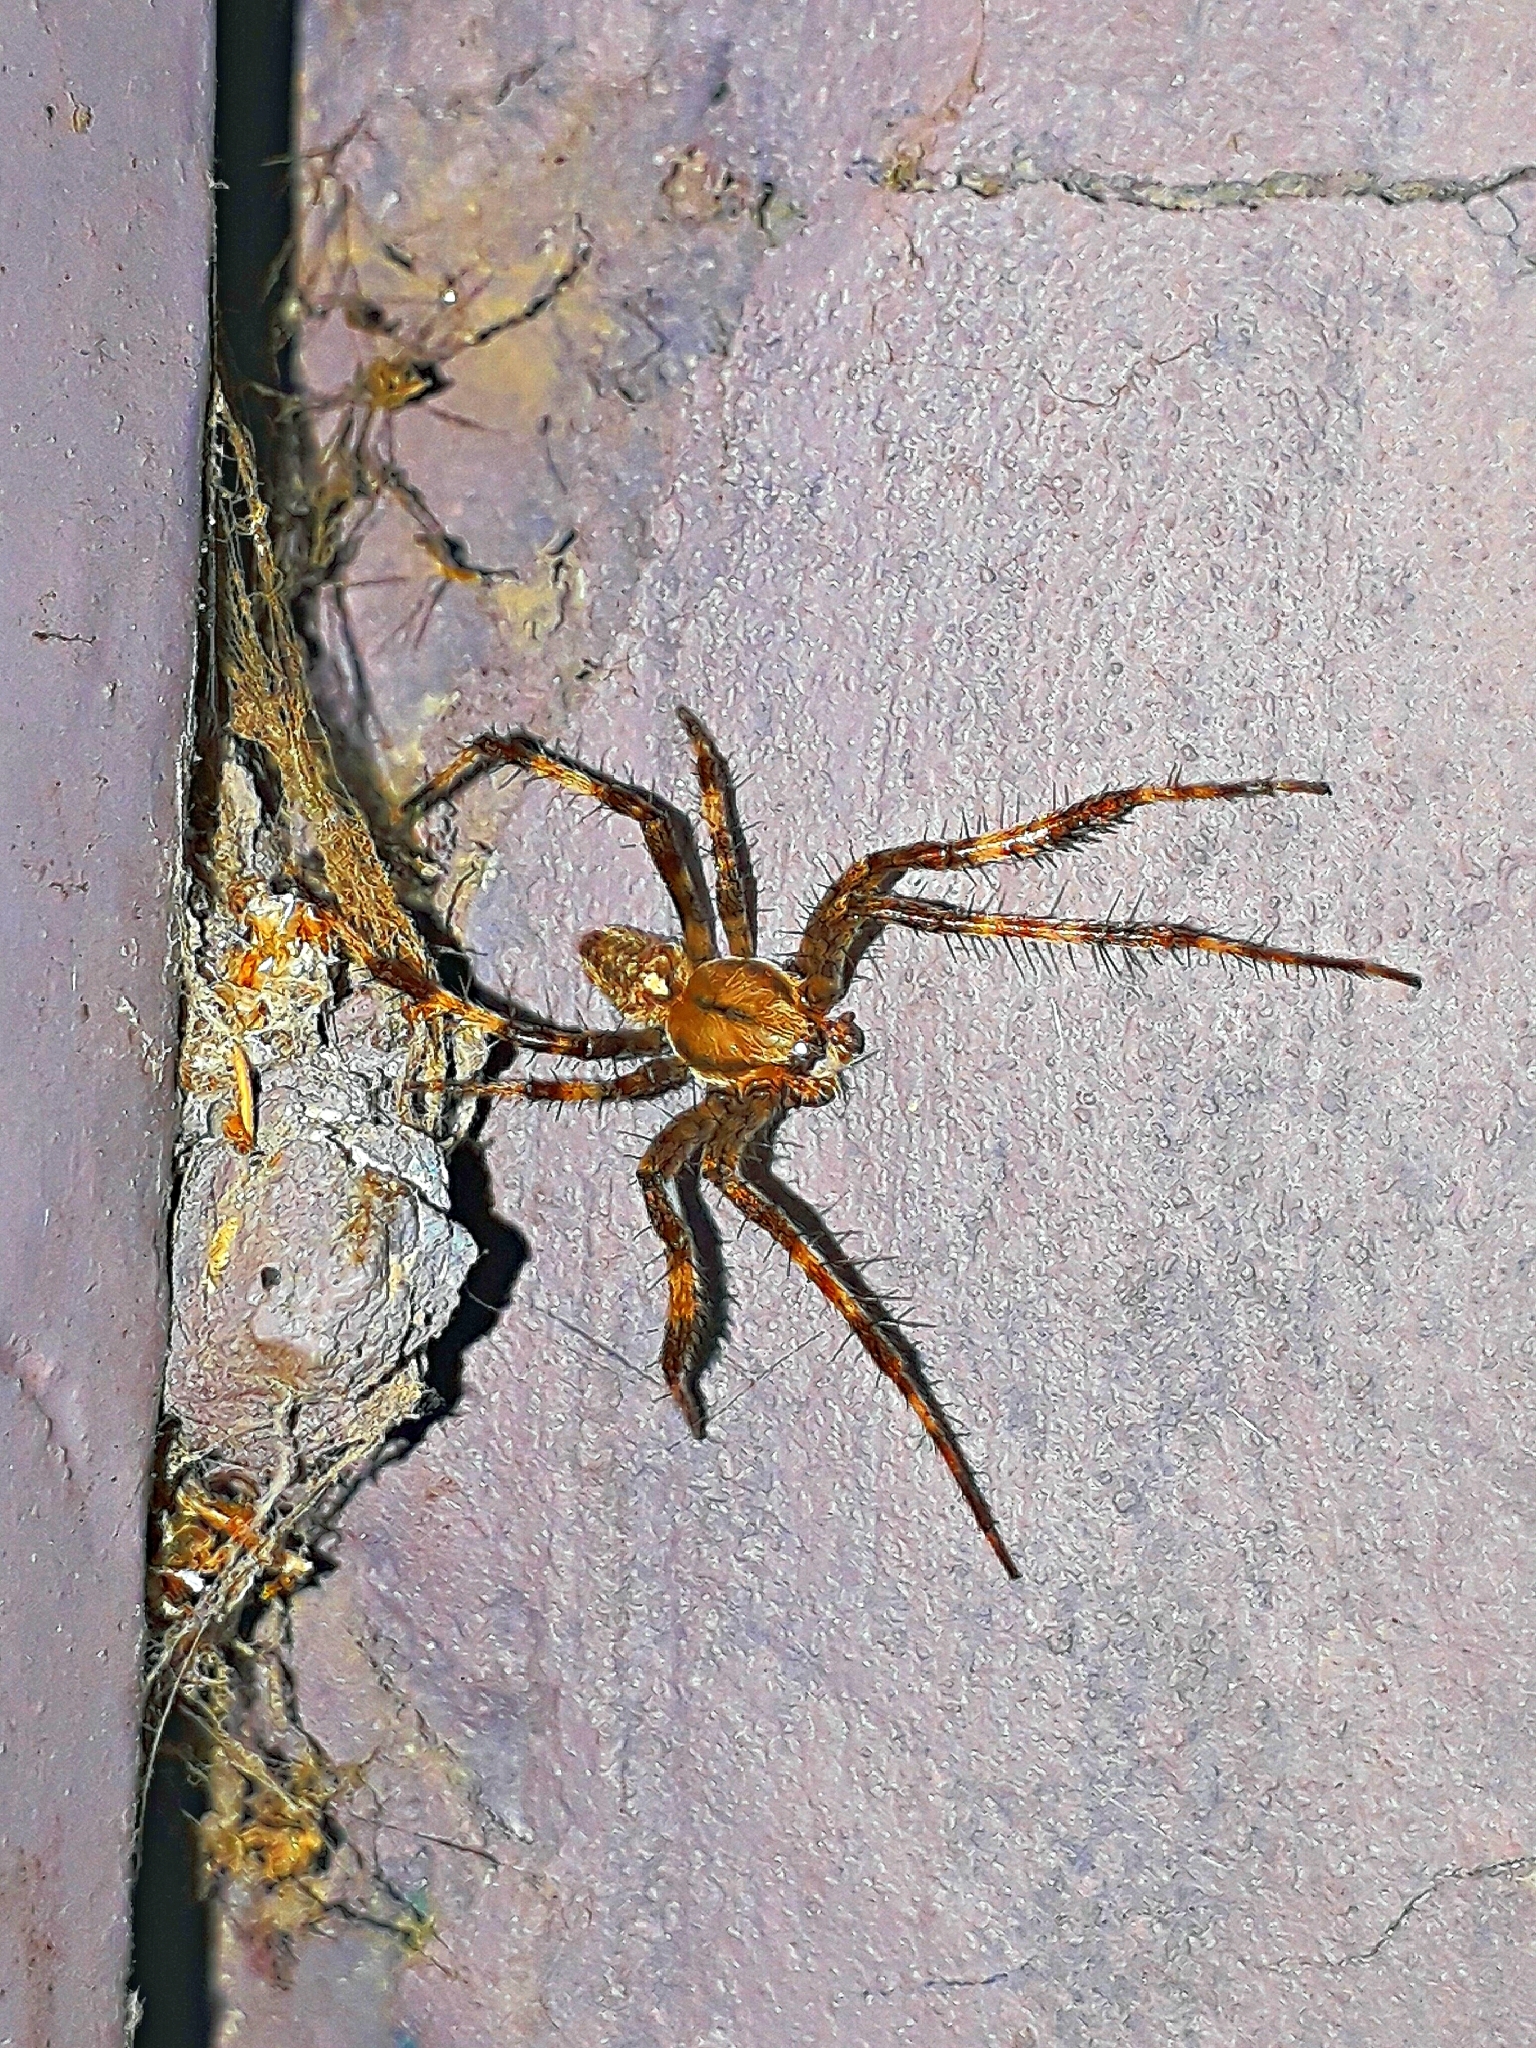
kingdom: Animalia
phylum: Arthropoda
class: Arachnida
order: Araneae
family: Araneidae
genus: Araneus
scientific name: Araneus diadematus
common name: Cross orbweaver
